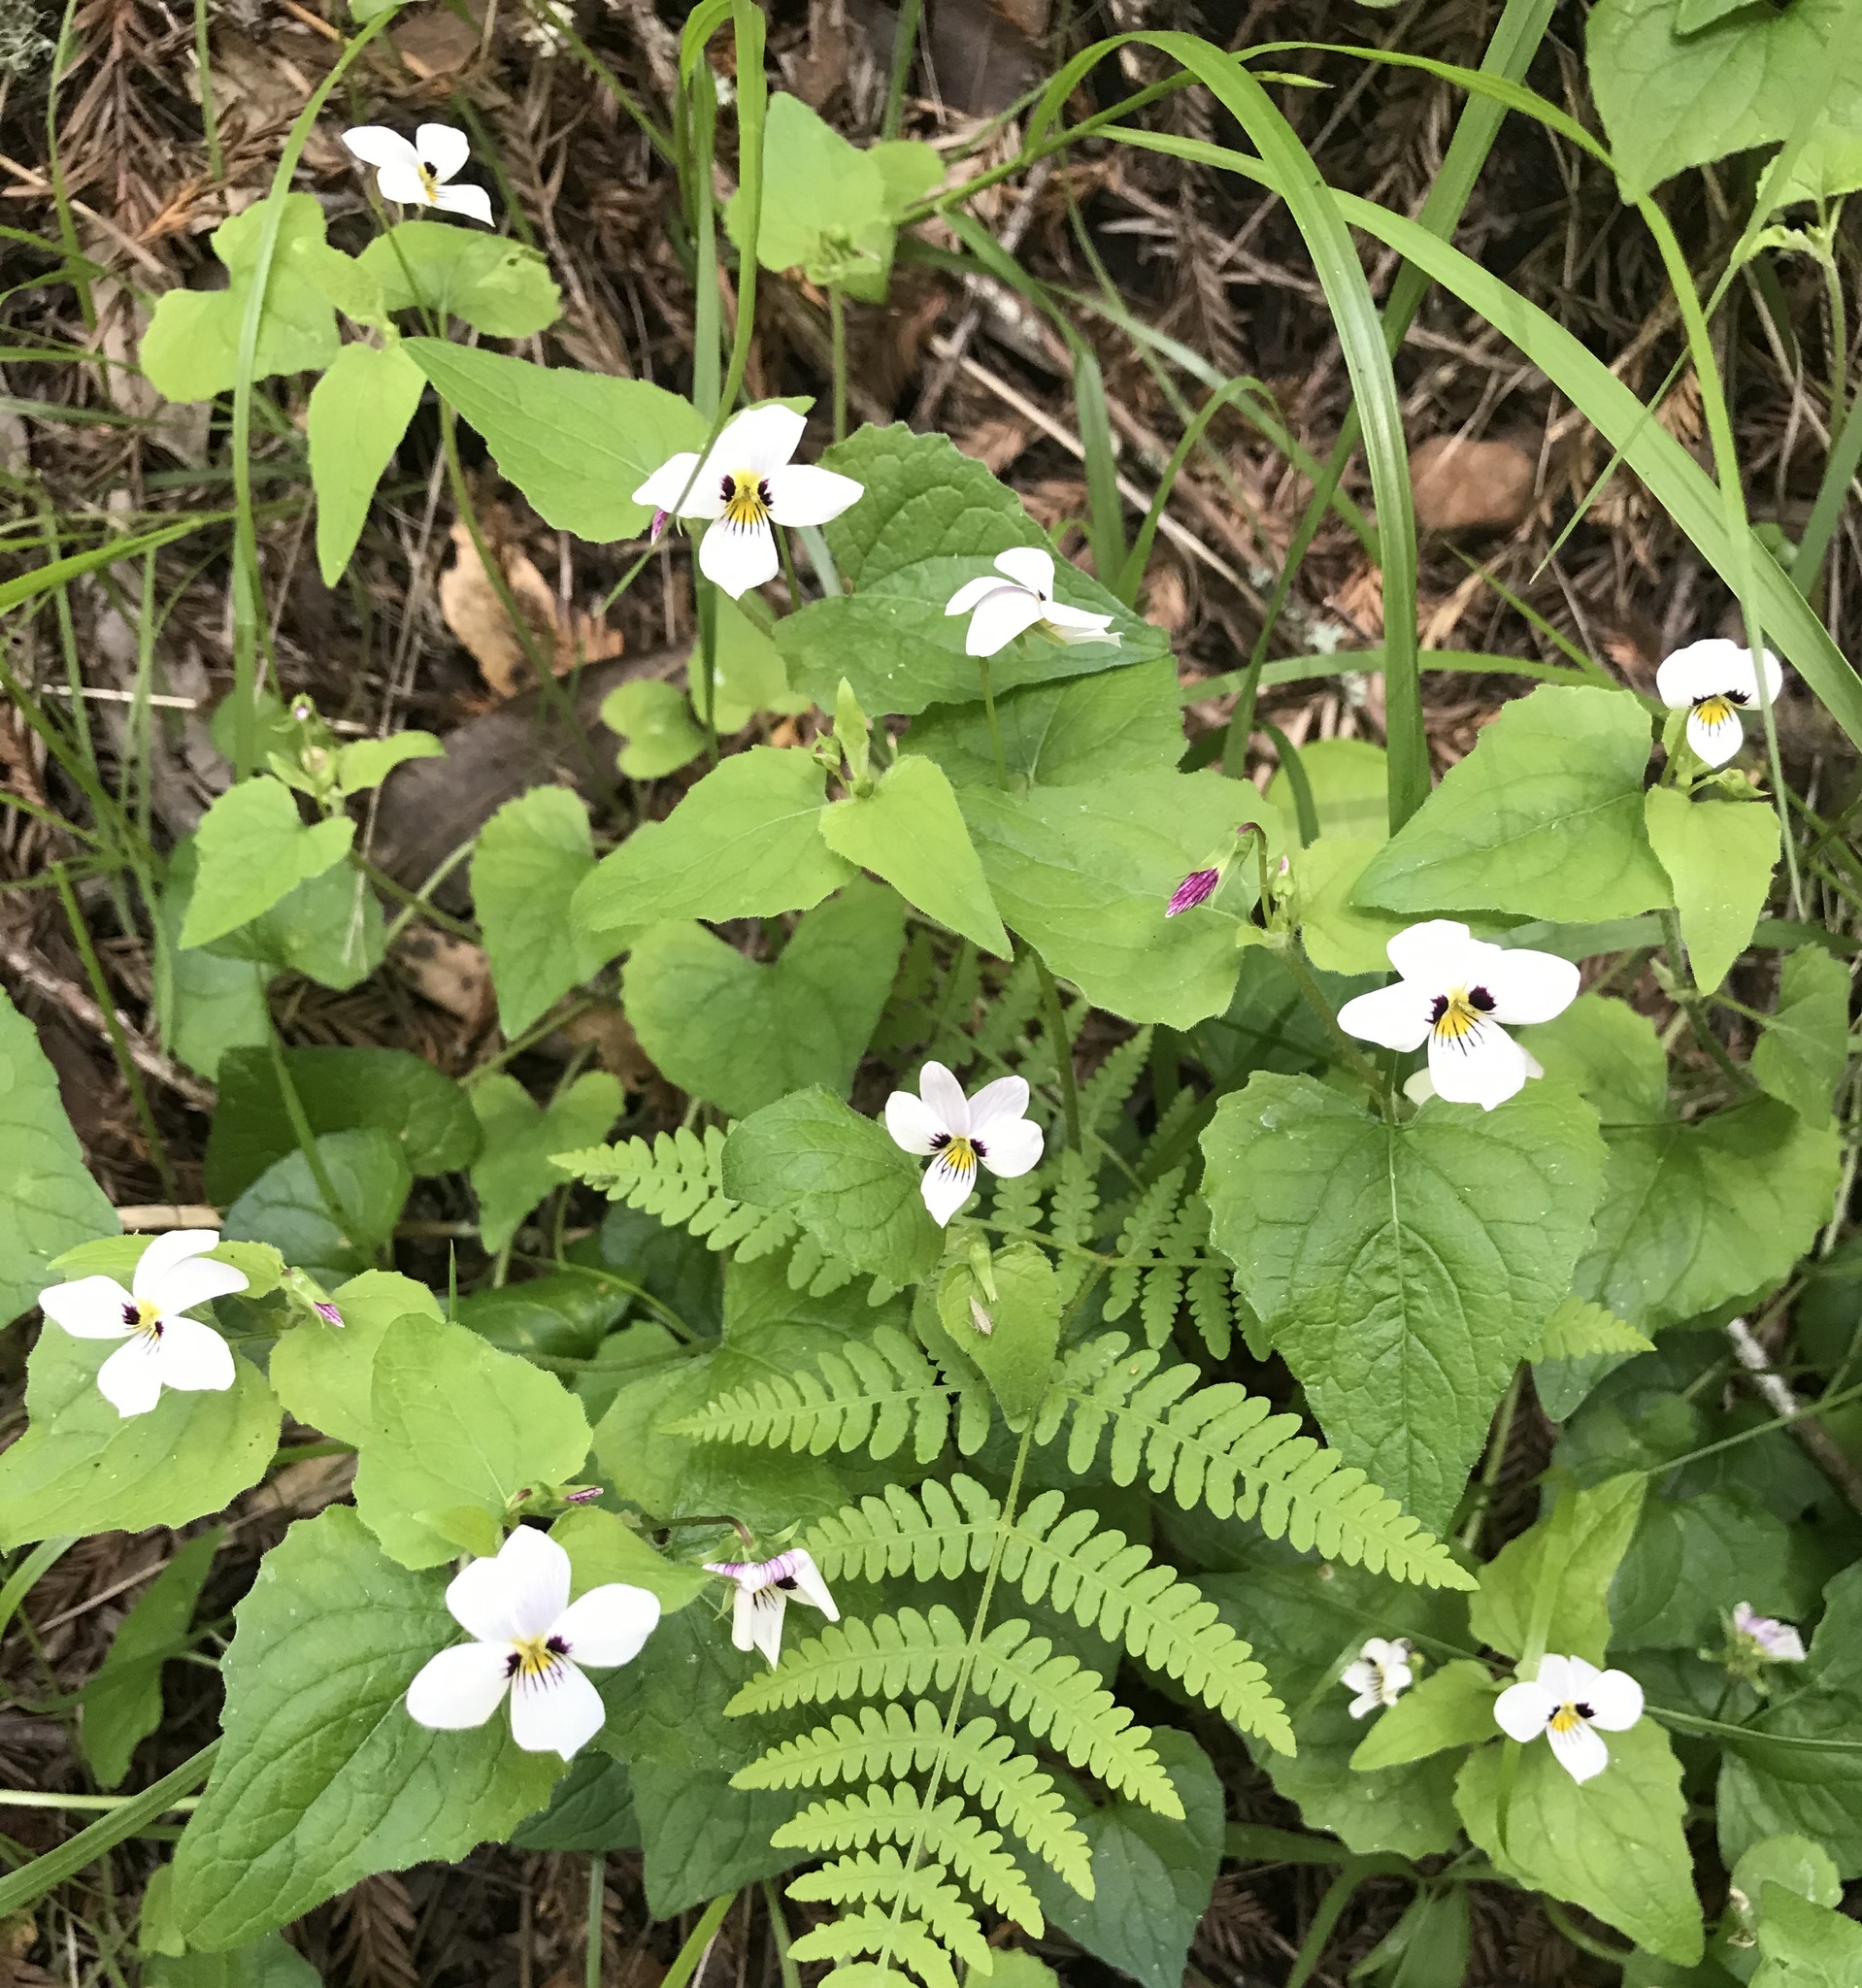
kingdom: Plantae
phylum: Tracheophyta
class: Magnoliopsida
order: Malpighiales
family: Violaceae
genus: Viola
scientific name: Viola ocellata
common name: Western heart's ease
